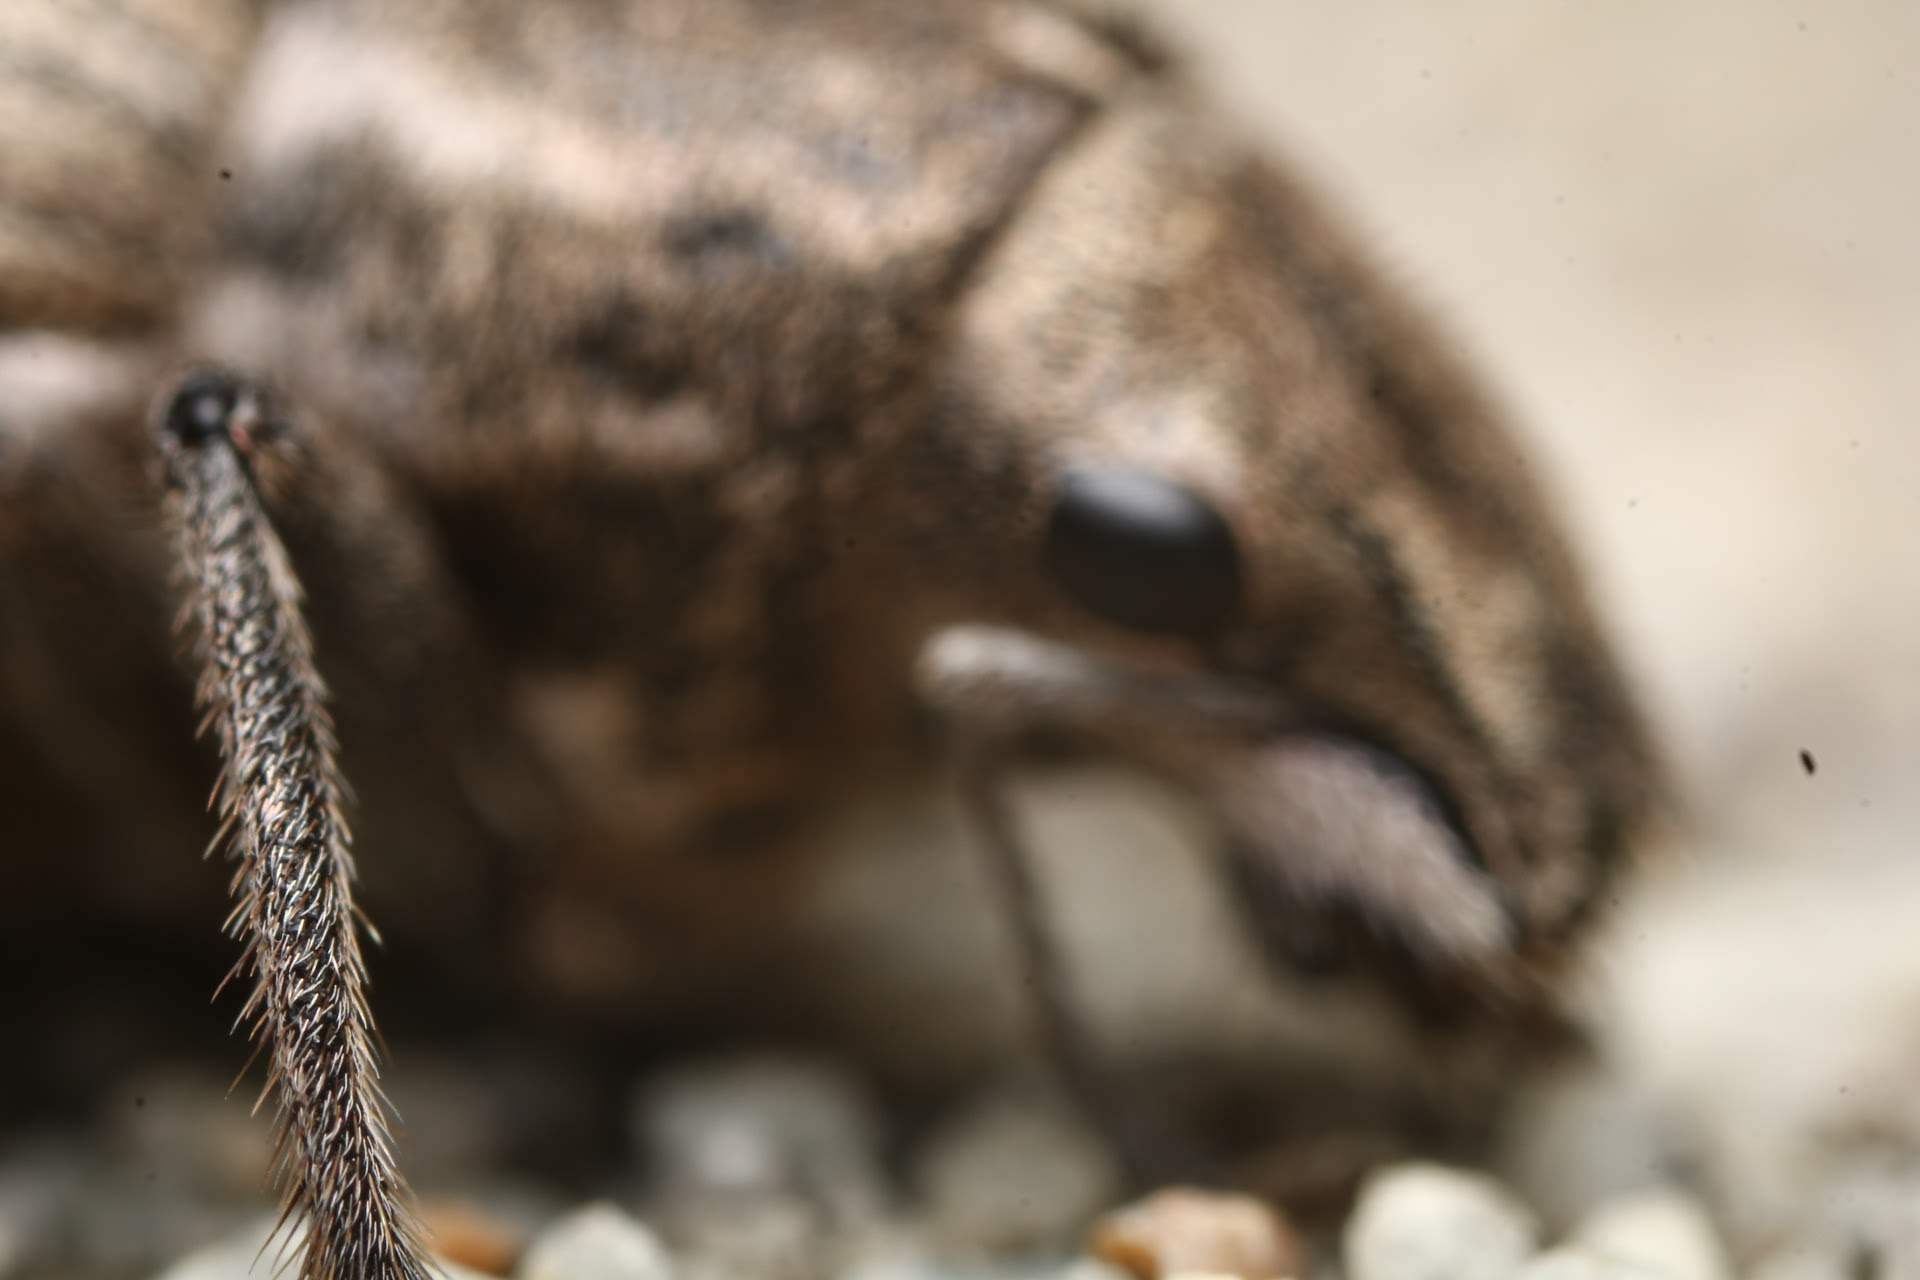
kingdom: Animalia
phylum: Arthropoda
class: Insecta
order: Coleoptera
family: Curculionidae
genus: Naupactus
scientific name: Naupactus leucoloma
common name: Whitefringed beetle
